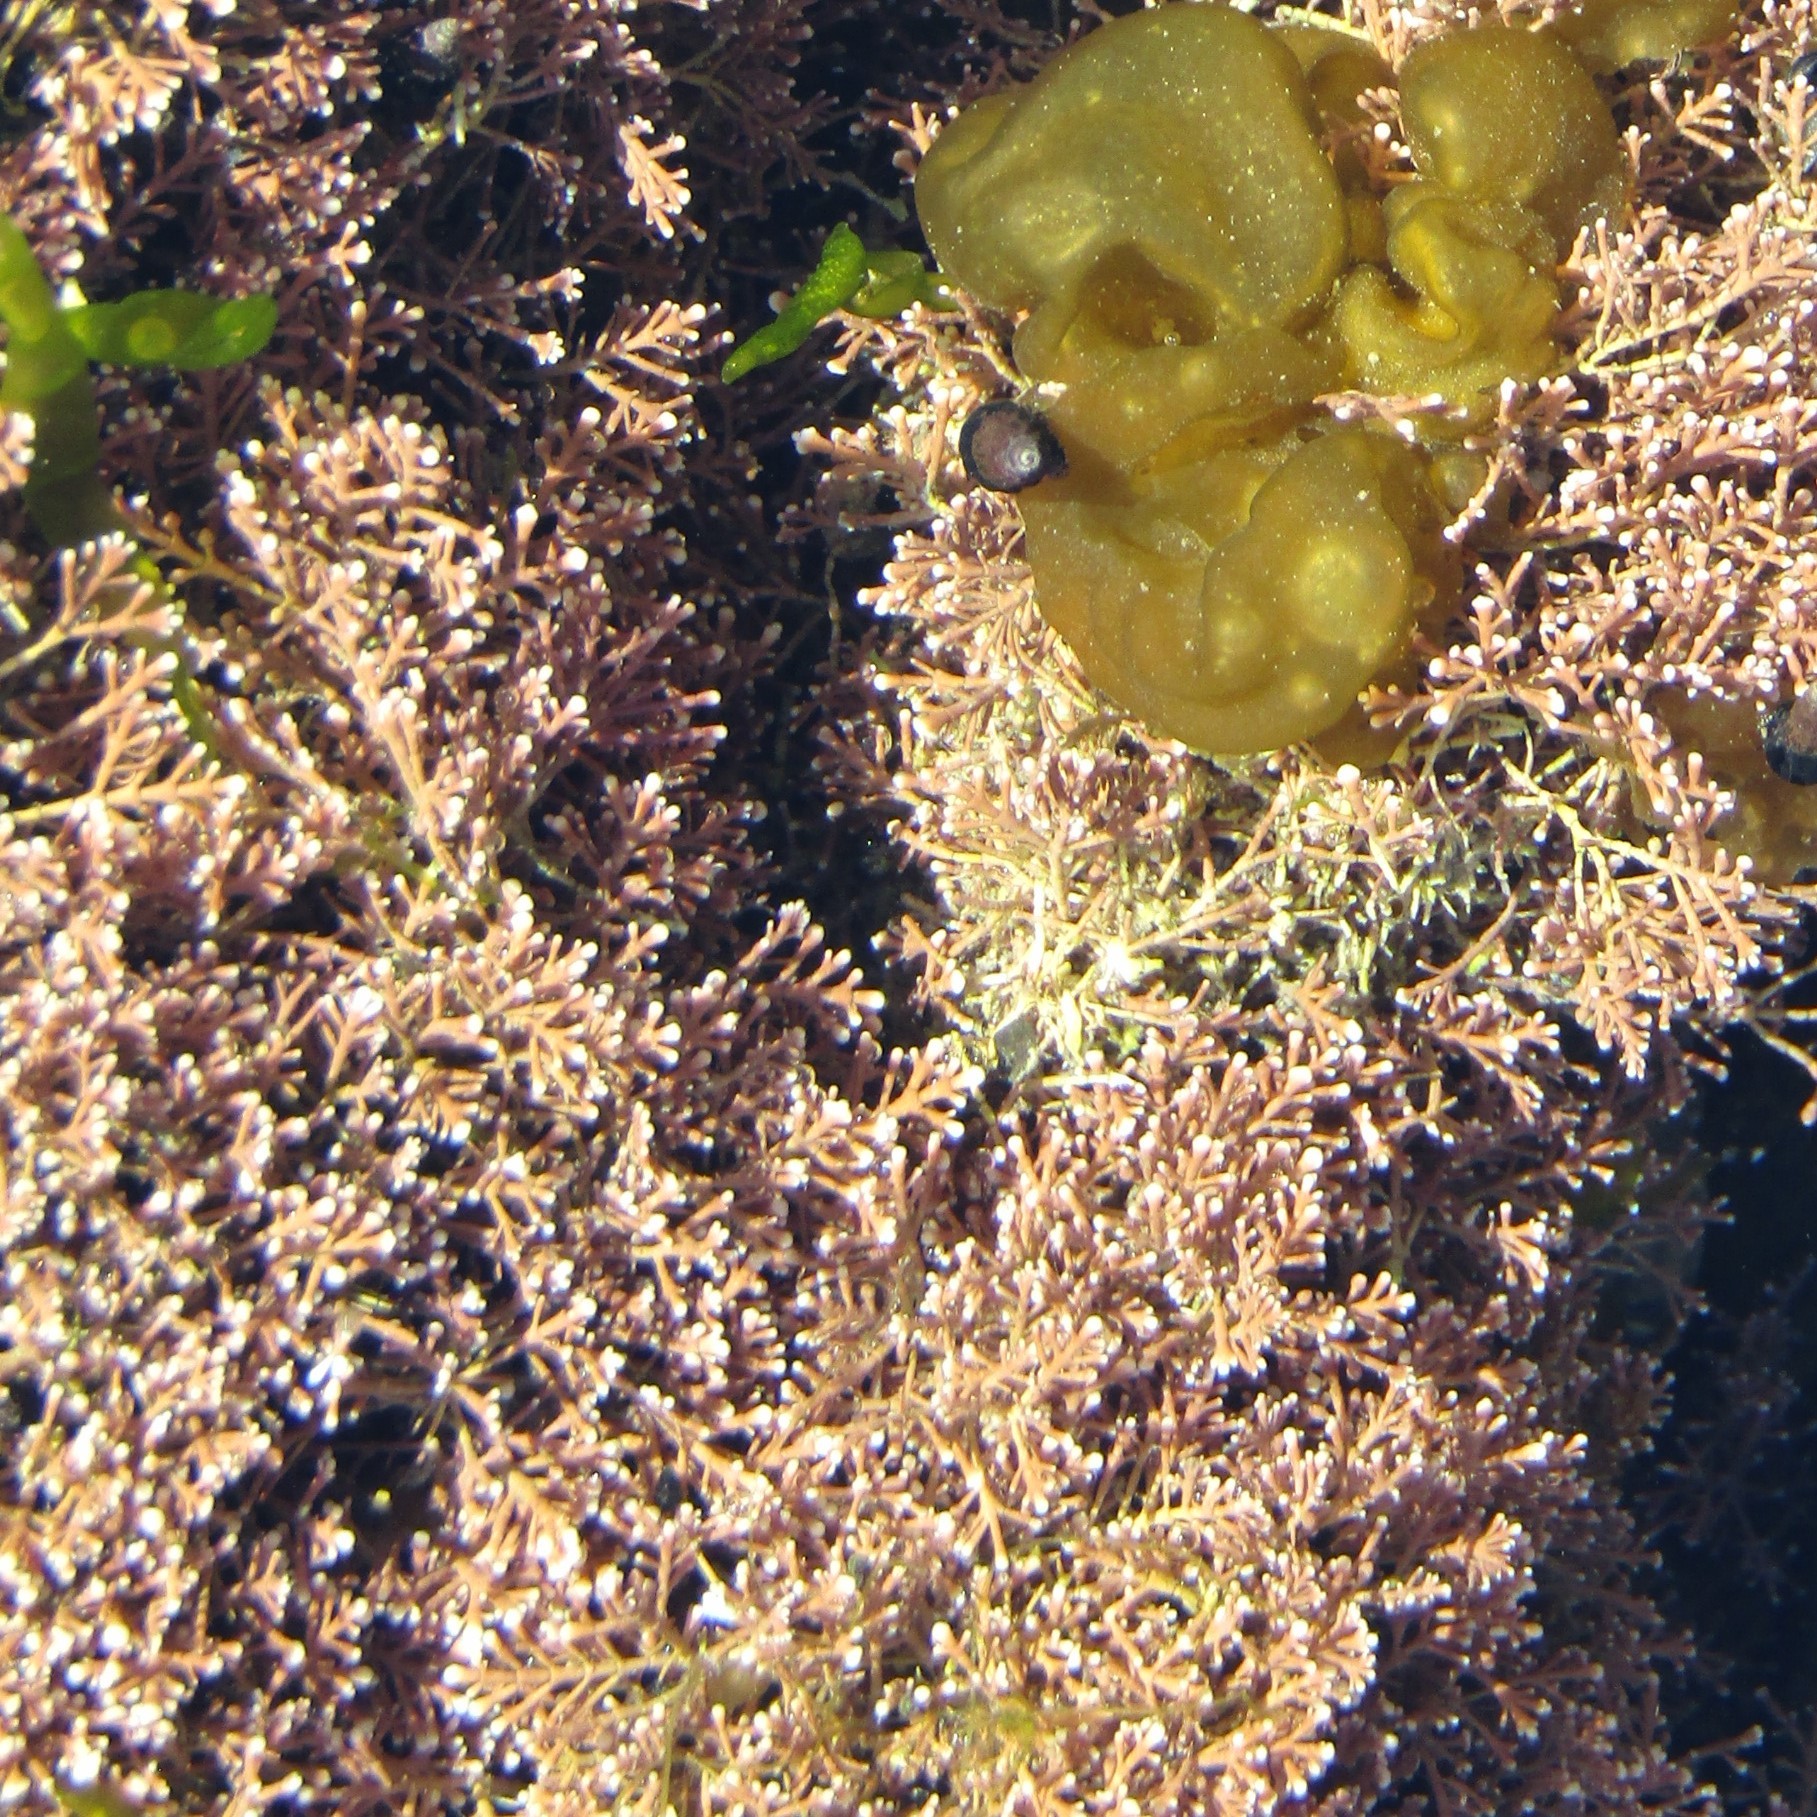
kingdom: Plantae
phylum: Rhodophyta
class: Florideophyceae
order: Corallinales
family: Corallinaceae
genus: Corallina
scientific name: Corallina officinalis
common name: Coral weed
